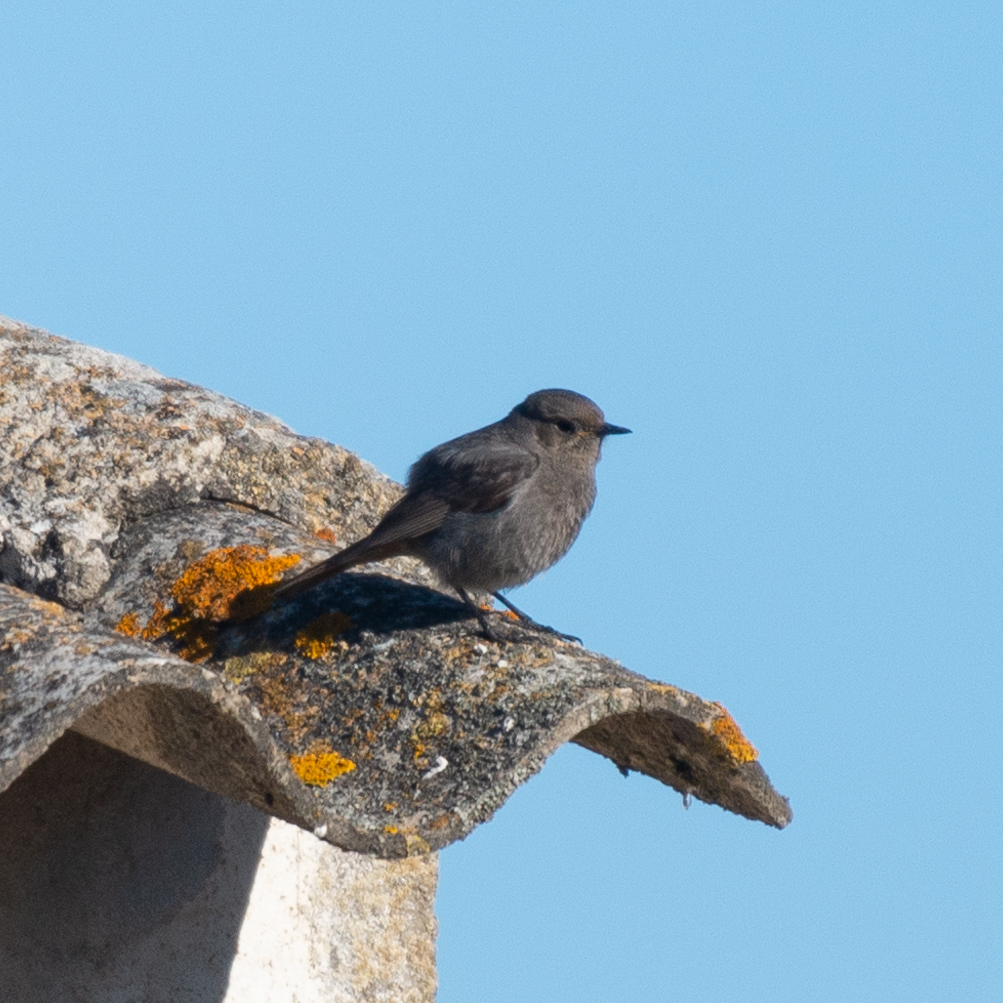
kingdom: Animalia
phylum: Chordata
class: Aves
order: Passeriformes
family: Muscicapidae
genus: Phoenicurus
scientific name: Phoenicurus ochruros
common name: Black redstart
